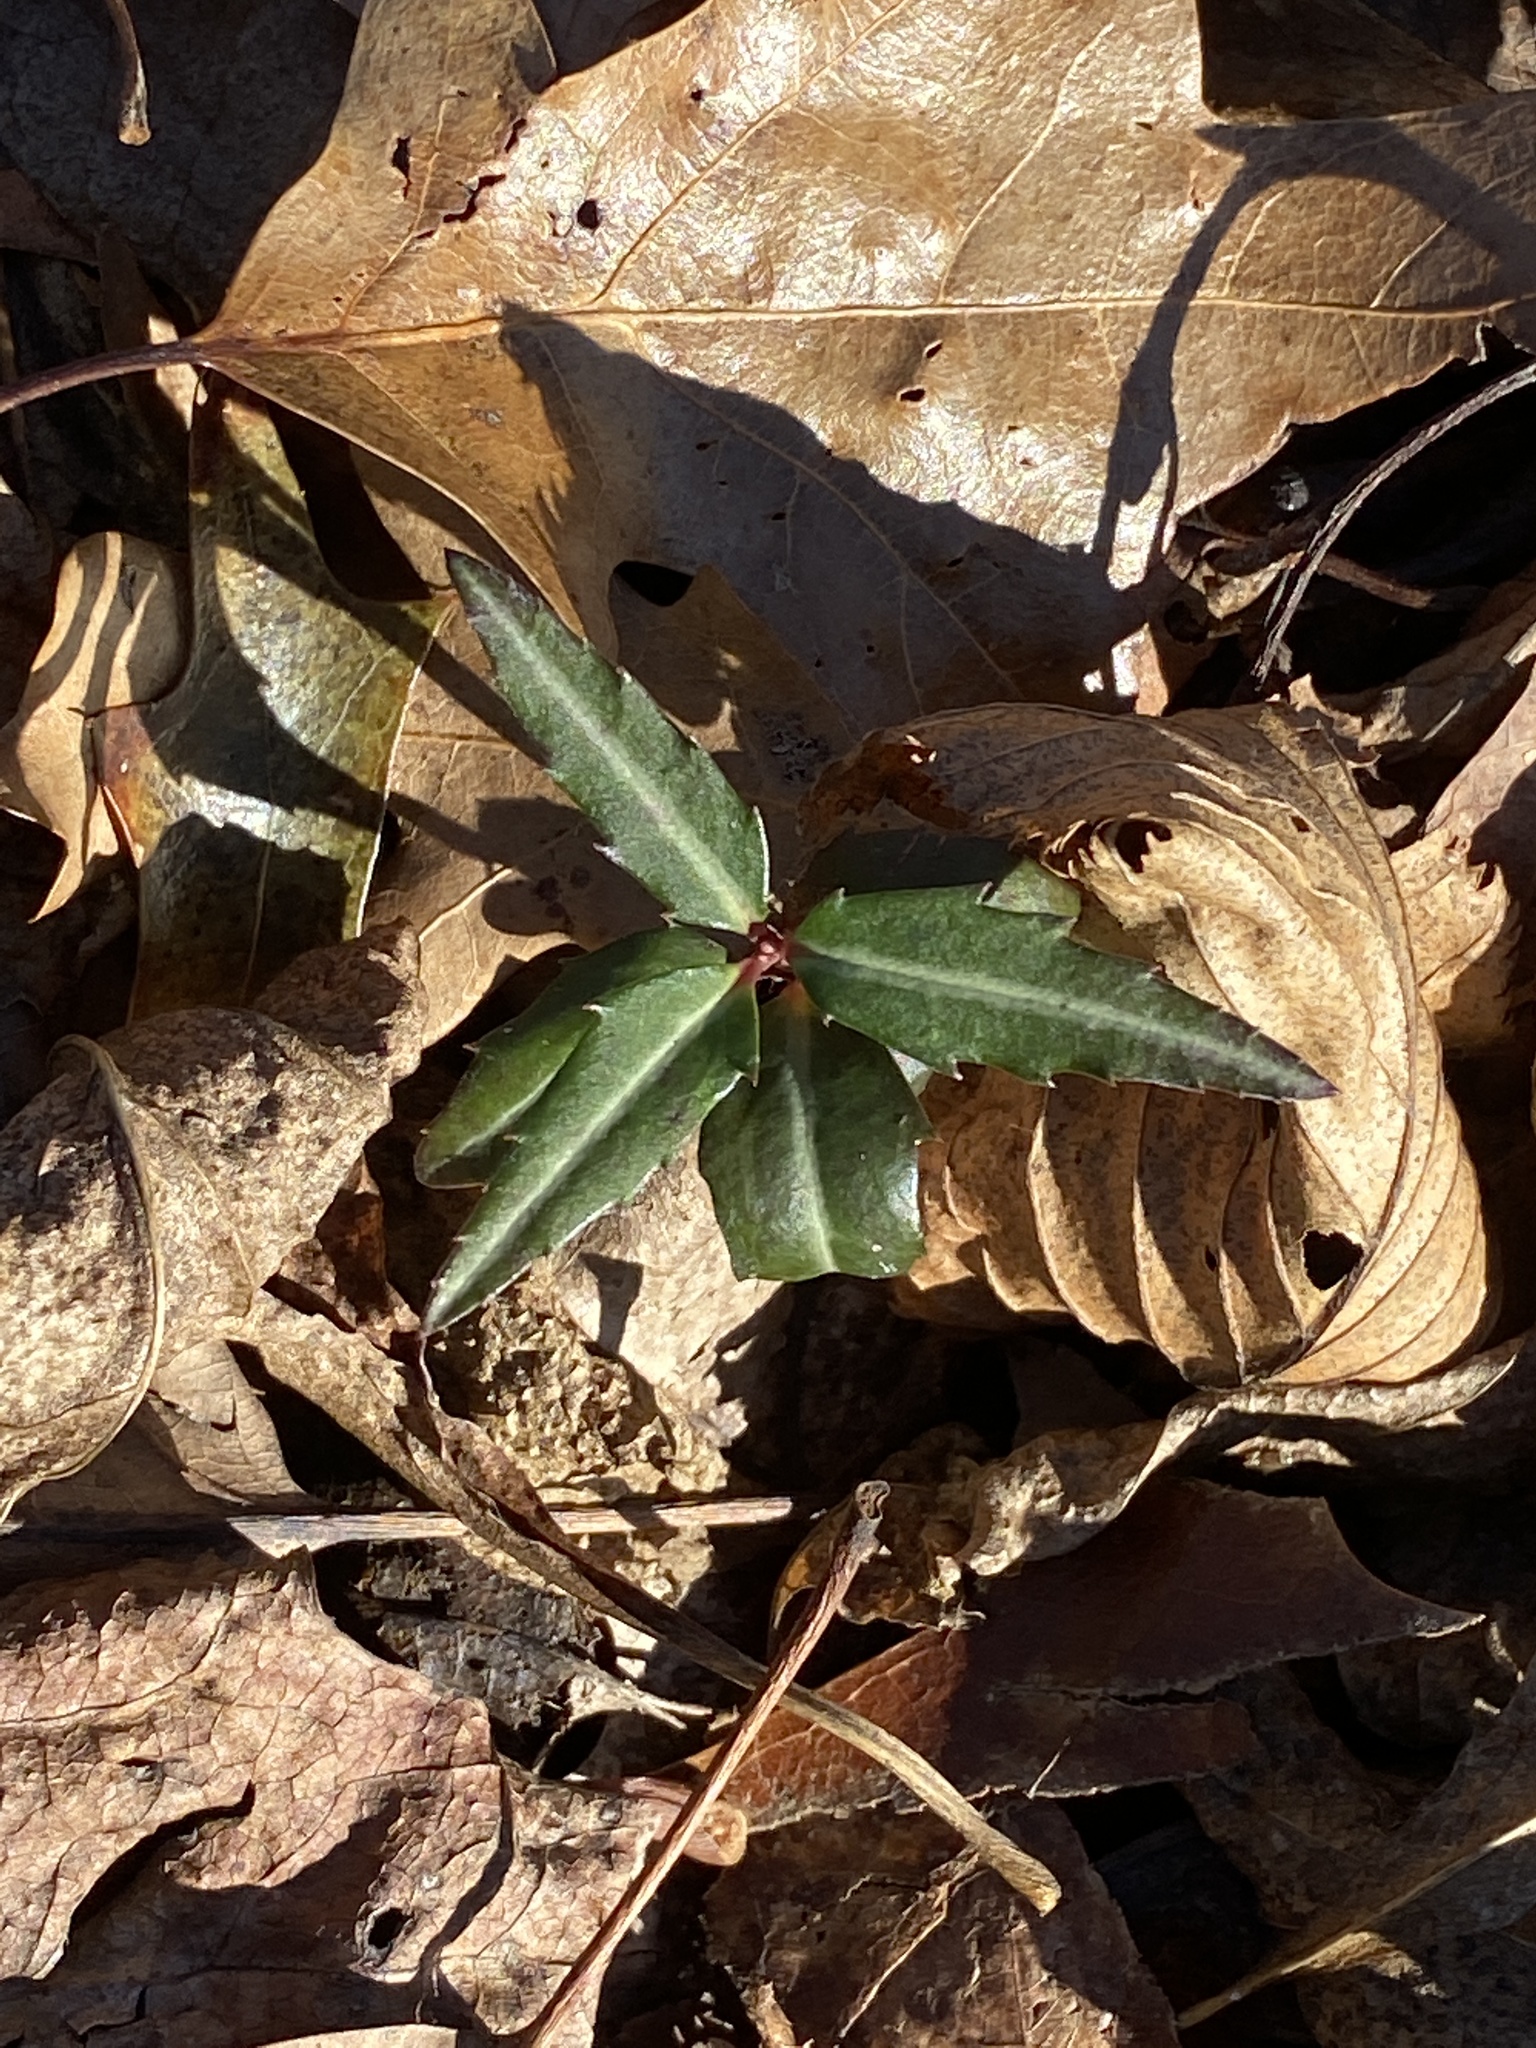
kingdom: Plantae
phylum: Tracheophyta
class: Magnoliopsida
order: Ericales
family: Ericaceae
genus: Chimaphila
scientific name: Chimaphila maculata
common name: Spotted pipsissewa
